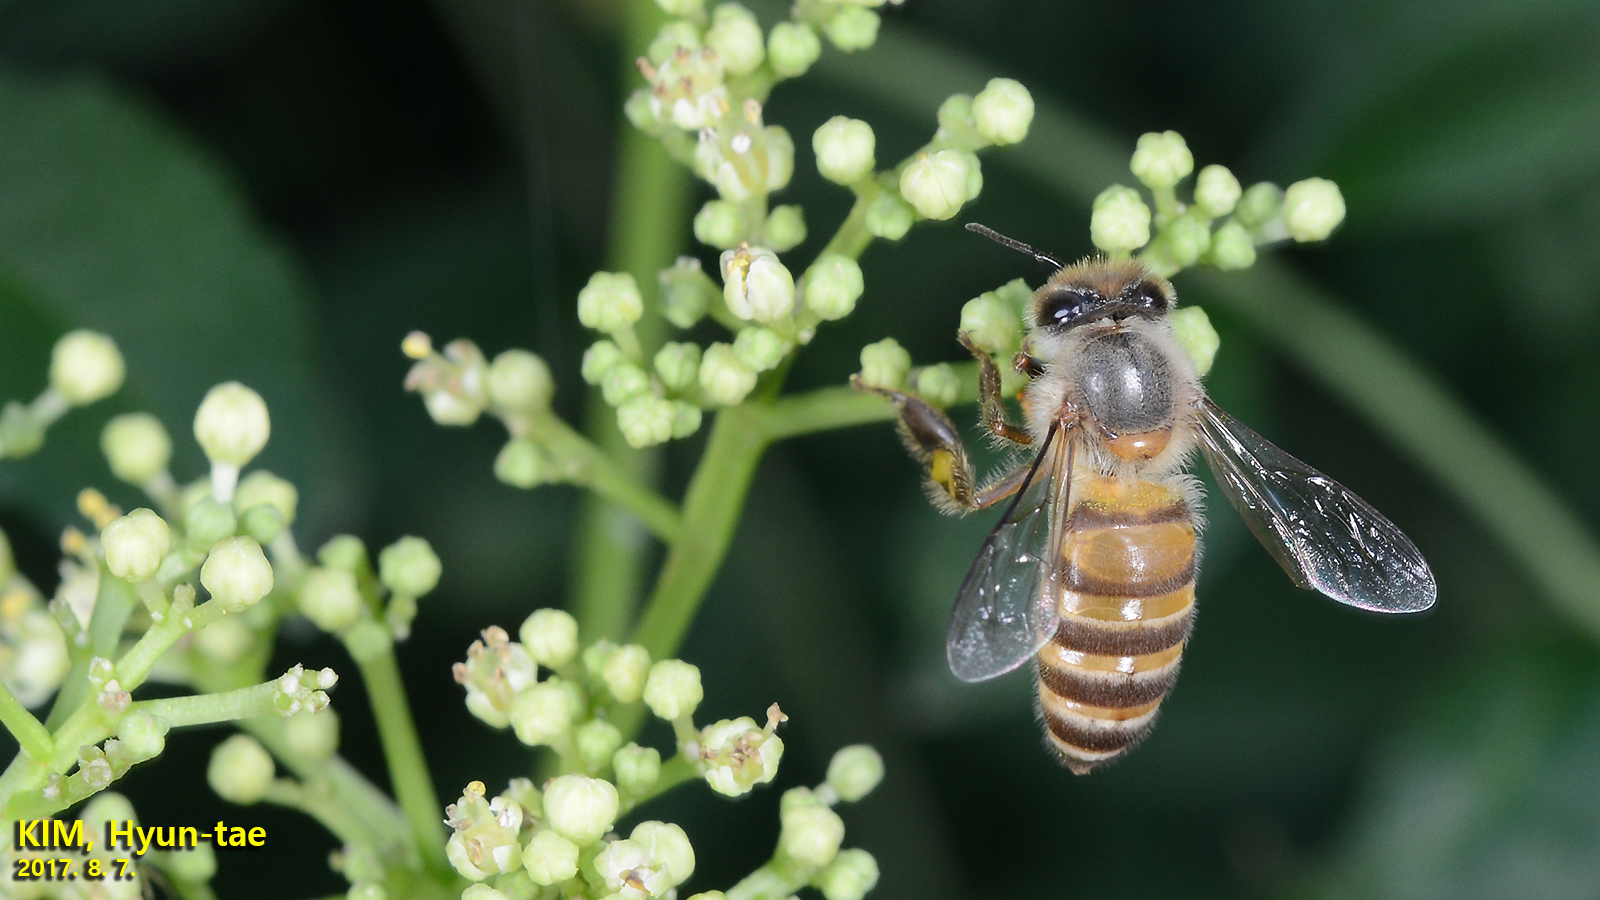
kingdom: Animalia
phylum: Arthropoda
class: Insecta
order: Hymenoptera
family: Apidae
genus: Apis
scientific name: Apis cerana
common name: Honey bee
